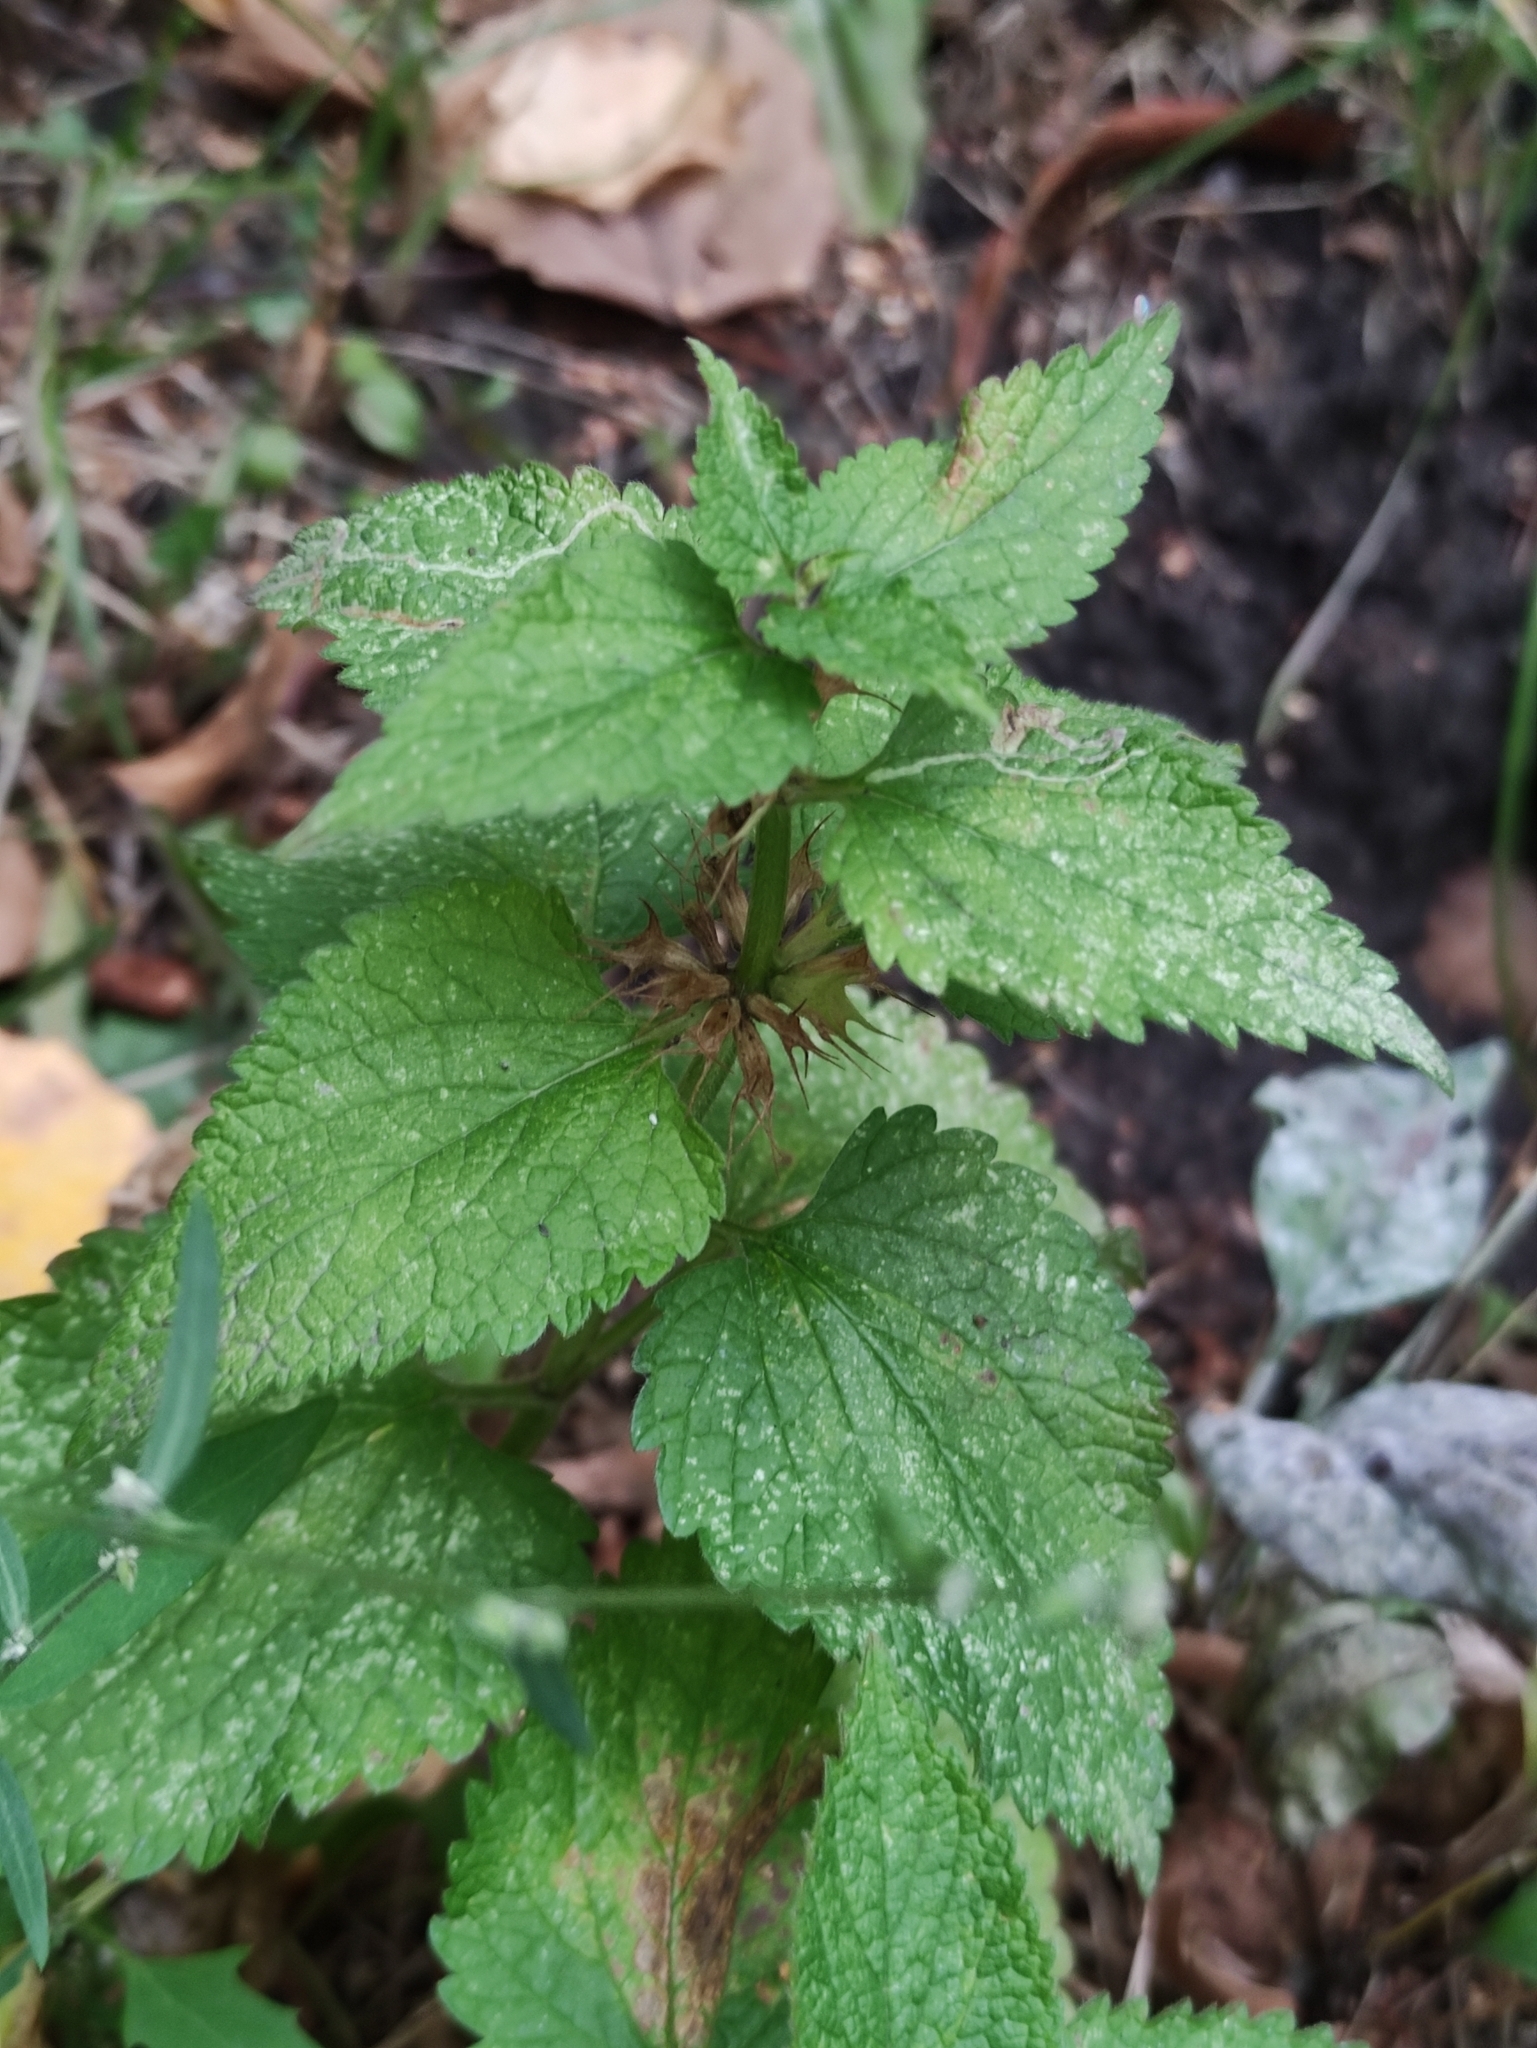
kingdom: Plantae
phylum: Tracheophyta
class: Magnoliopsida
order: Lamiales
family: Lamiaceae
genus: Lamium
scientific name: Lamium album
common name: White dead-nettle
